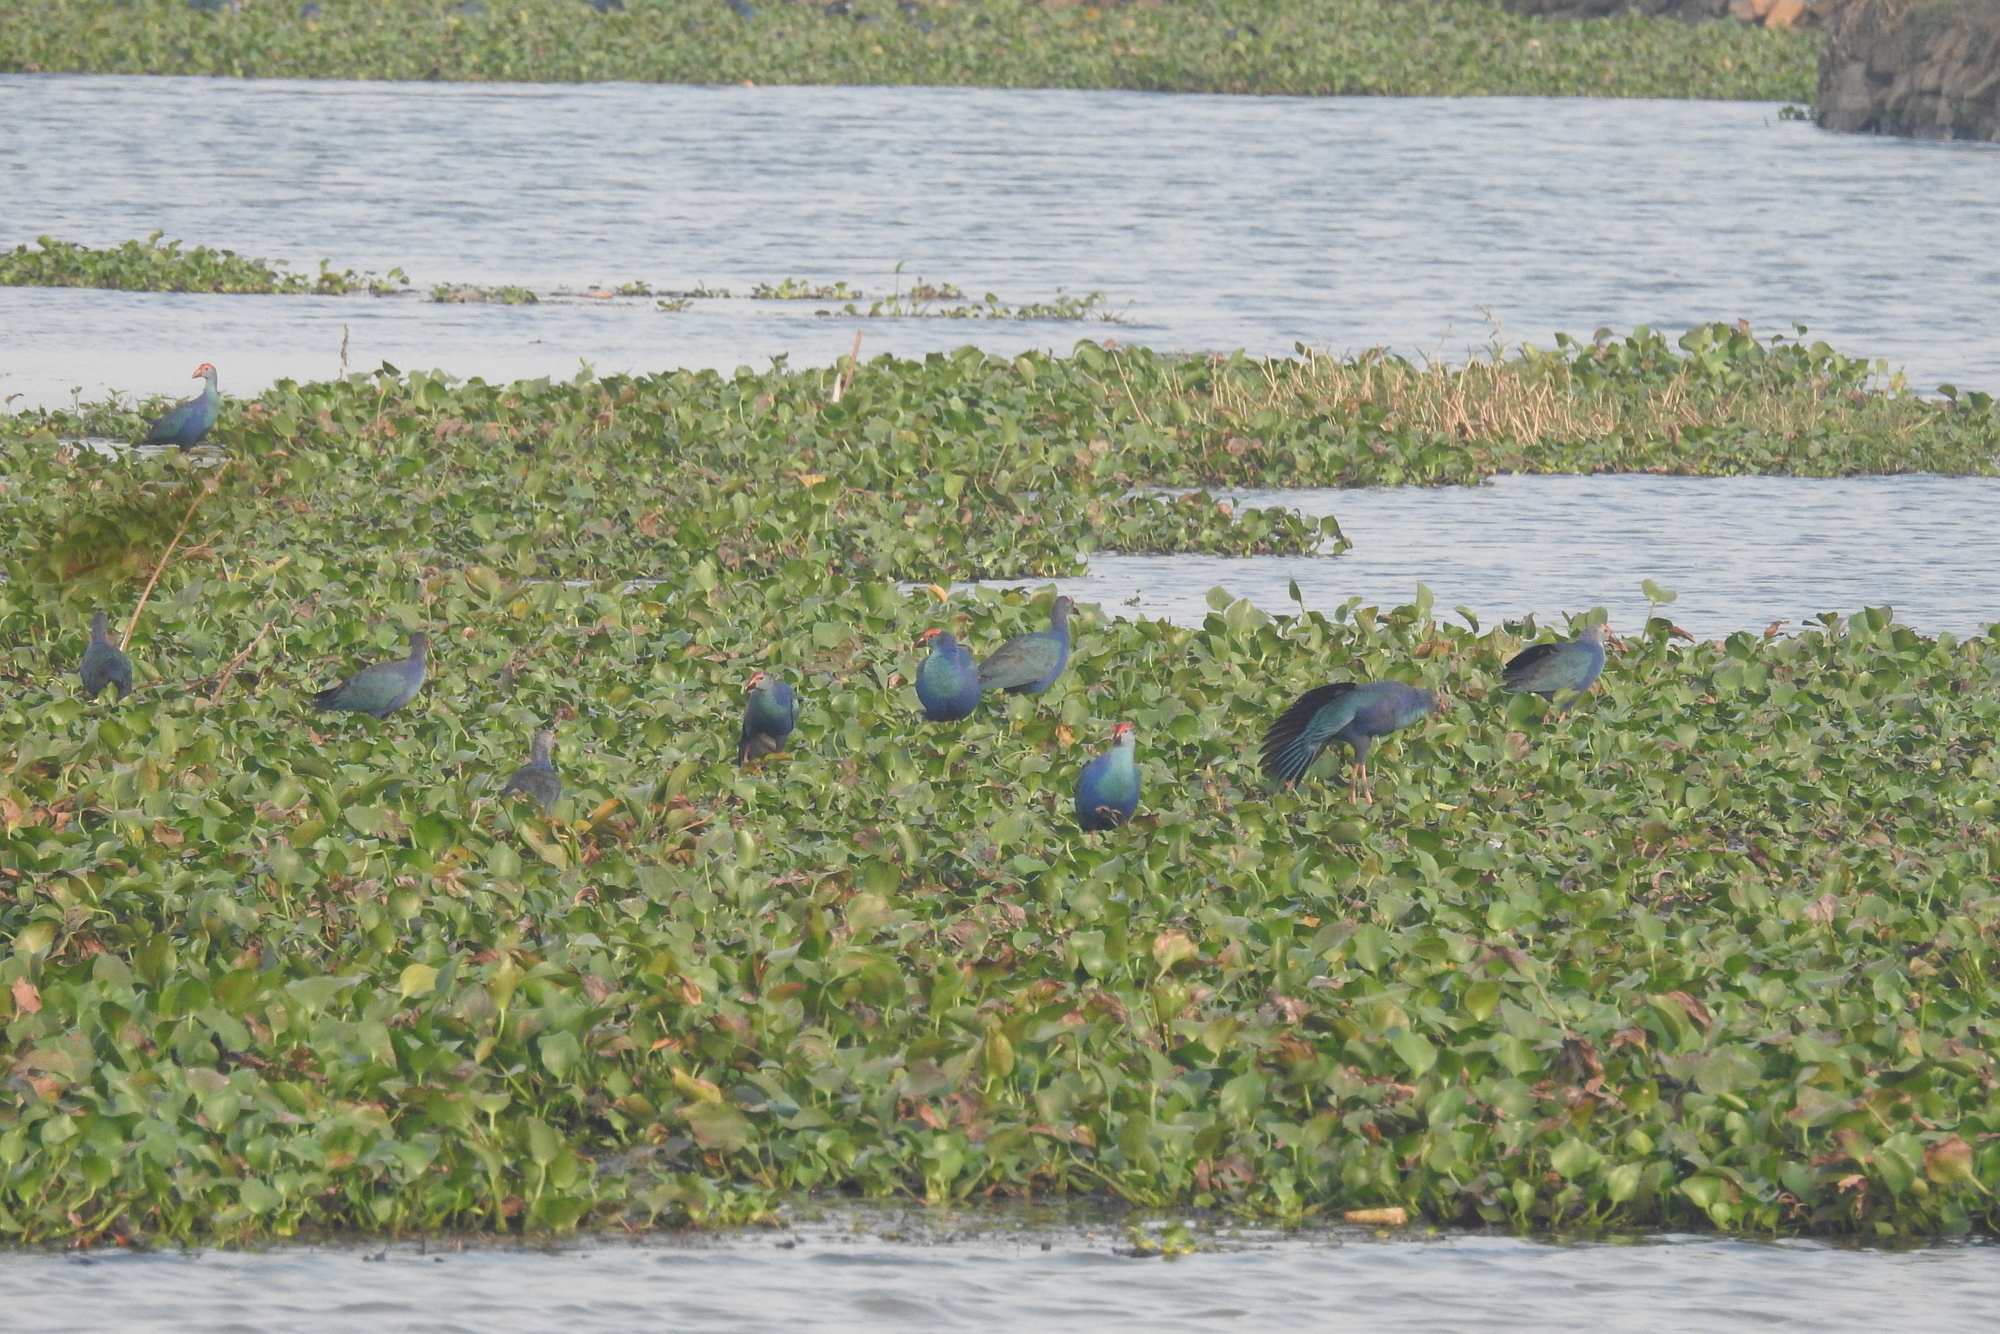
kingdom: Animalia
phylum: Chordata
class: Aves
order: Gruiformes
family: Rallidae
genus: Porphyrio
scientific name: Porphyrio porphyrio
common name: Purple swamphen
